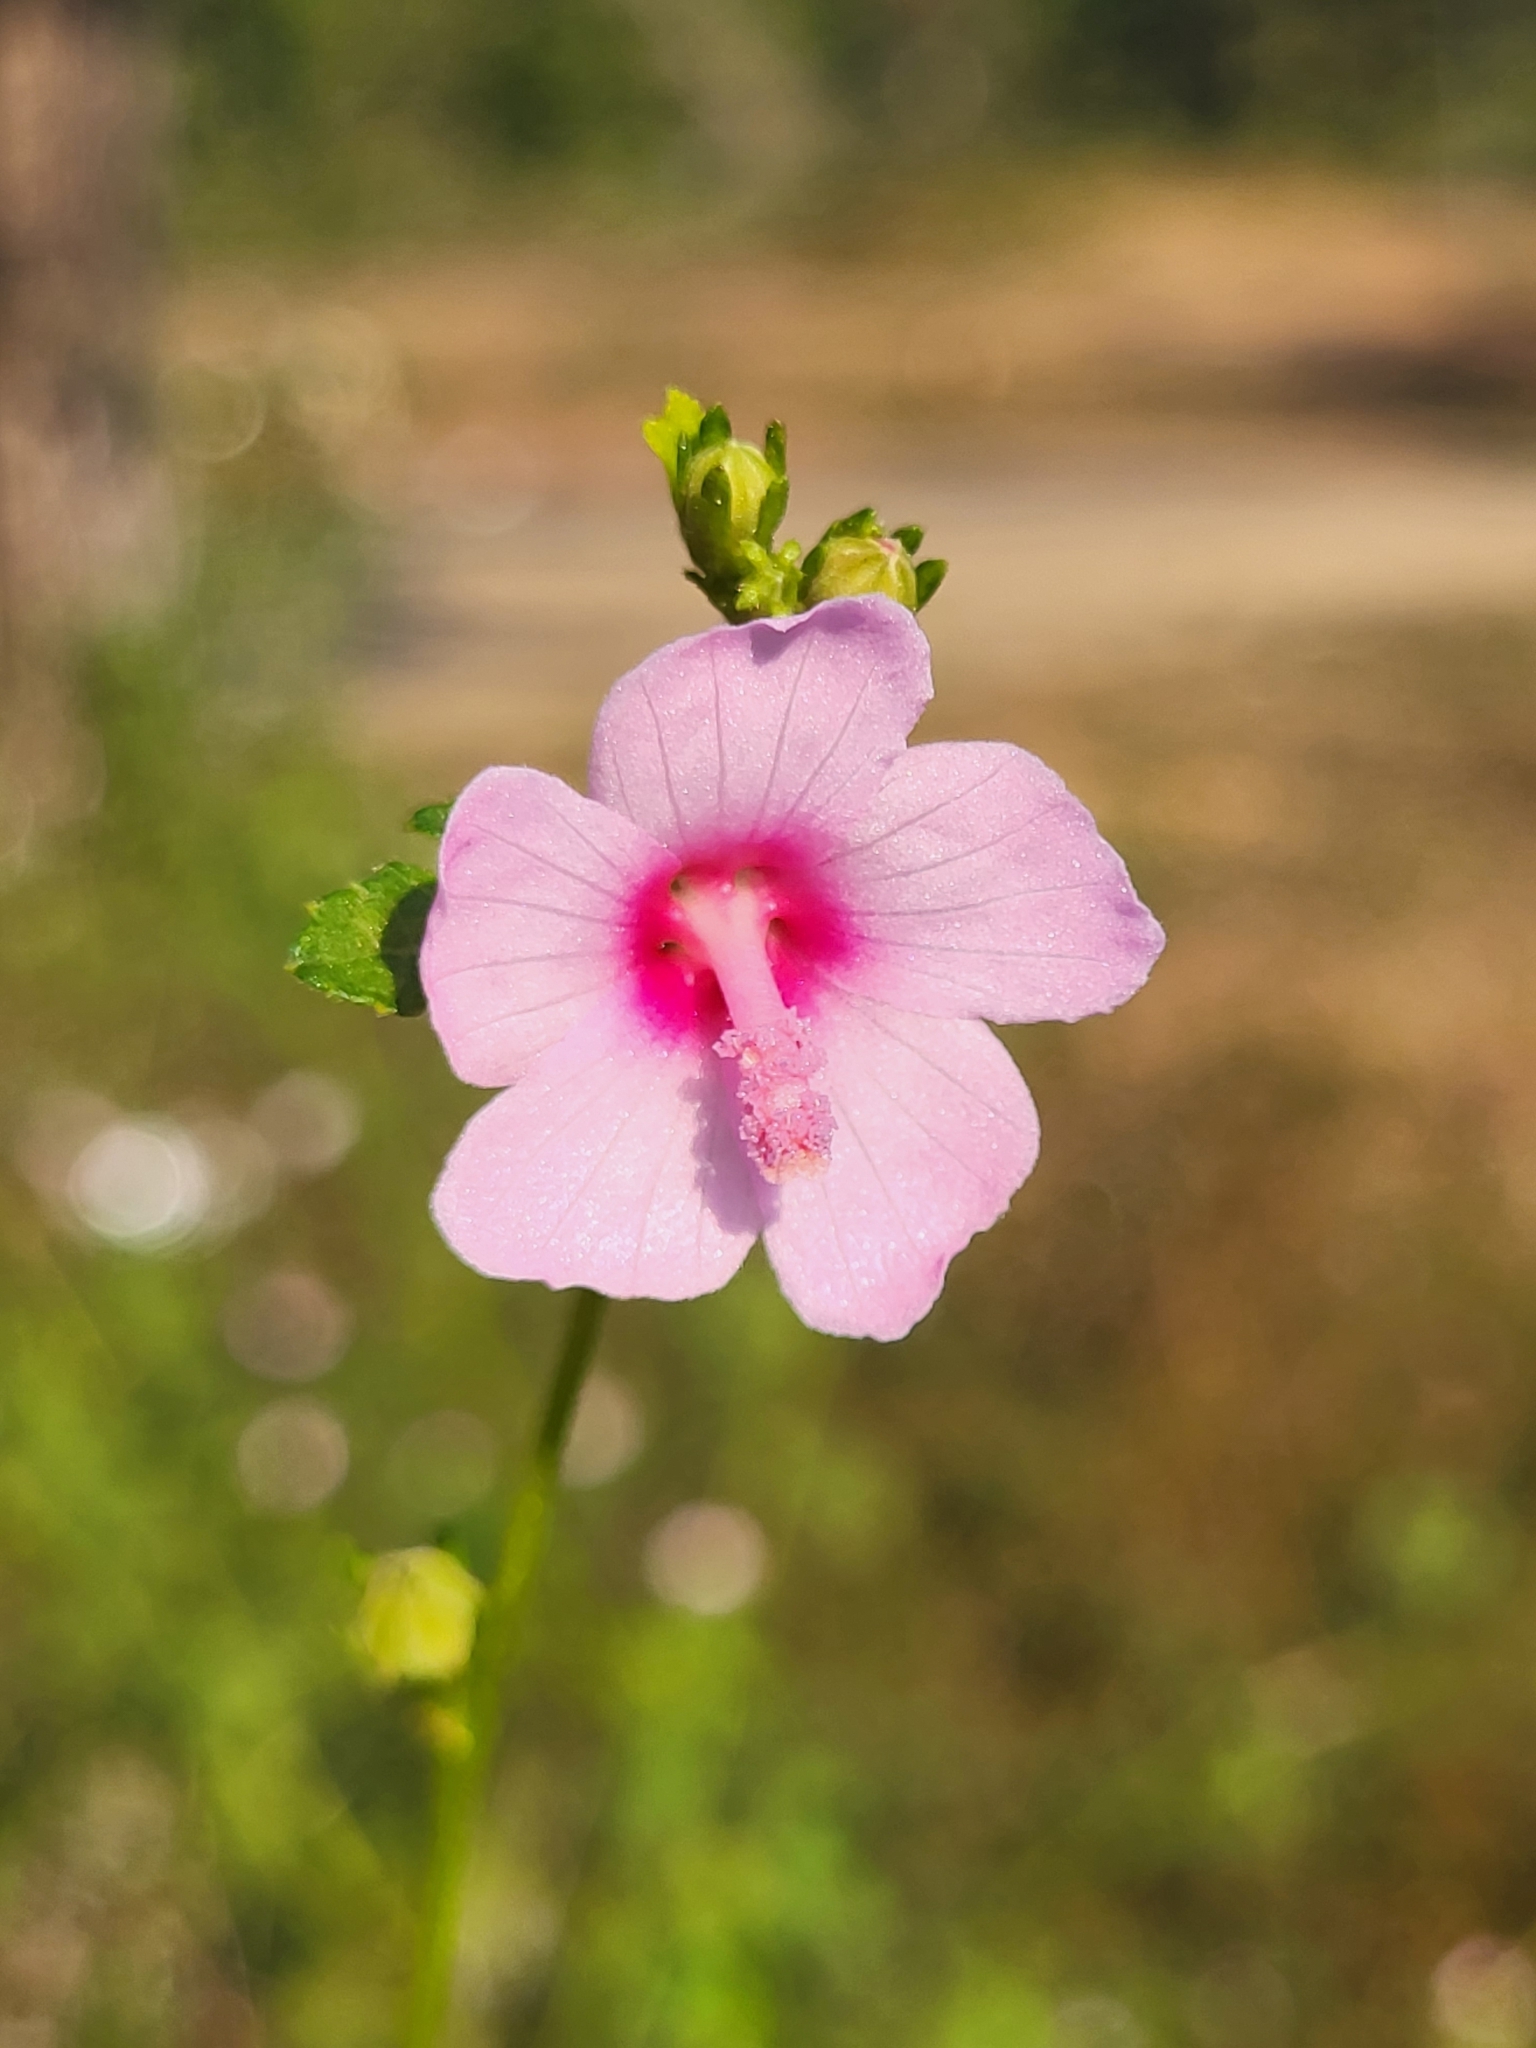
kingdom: Plantae
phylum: Tracheophyta
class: Magnoliopsida
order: Malvales
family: Malvaceae
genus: Urena
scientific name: Urena lobata
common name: Caesarweed
